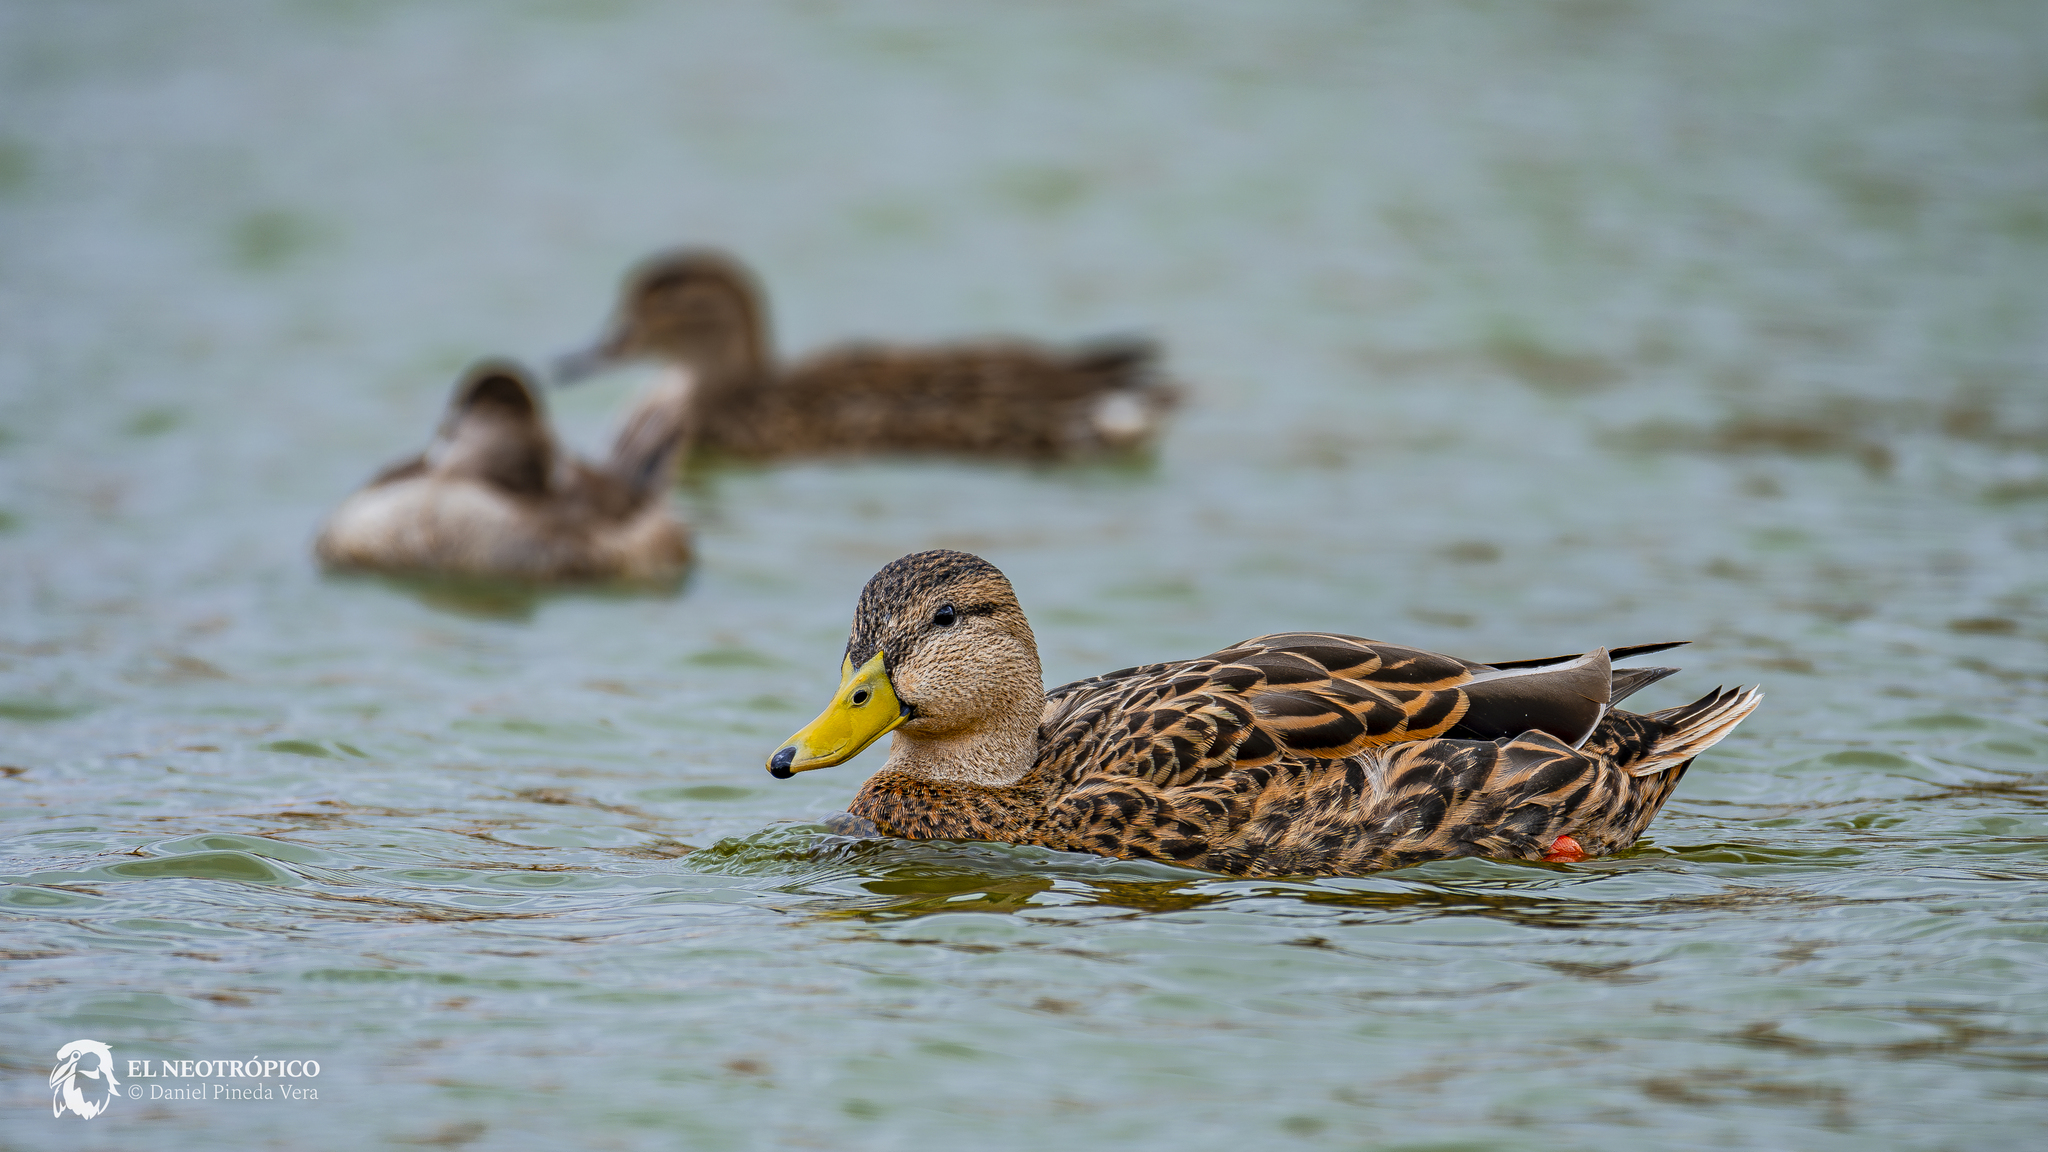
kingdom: Animalia
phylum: Chordata
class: Aves
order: Anseriformes
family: Anatidae
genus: Anas
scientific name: Anas diazi
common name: Mexican duck
